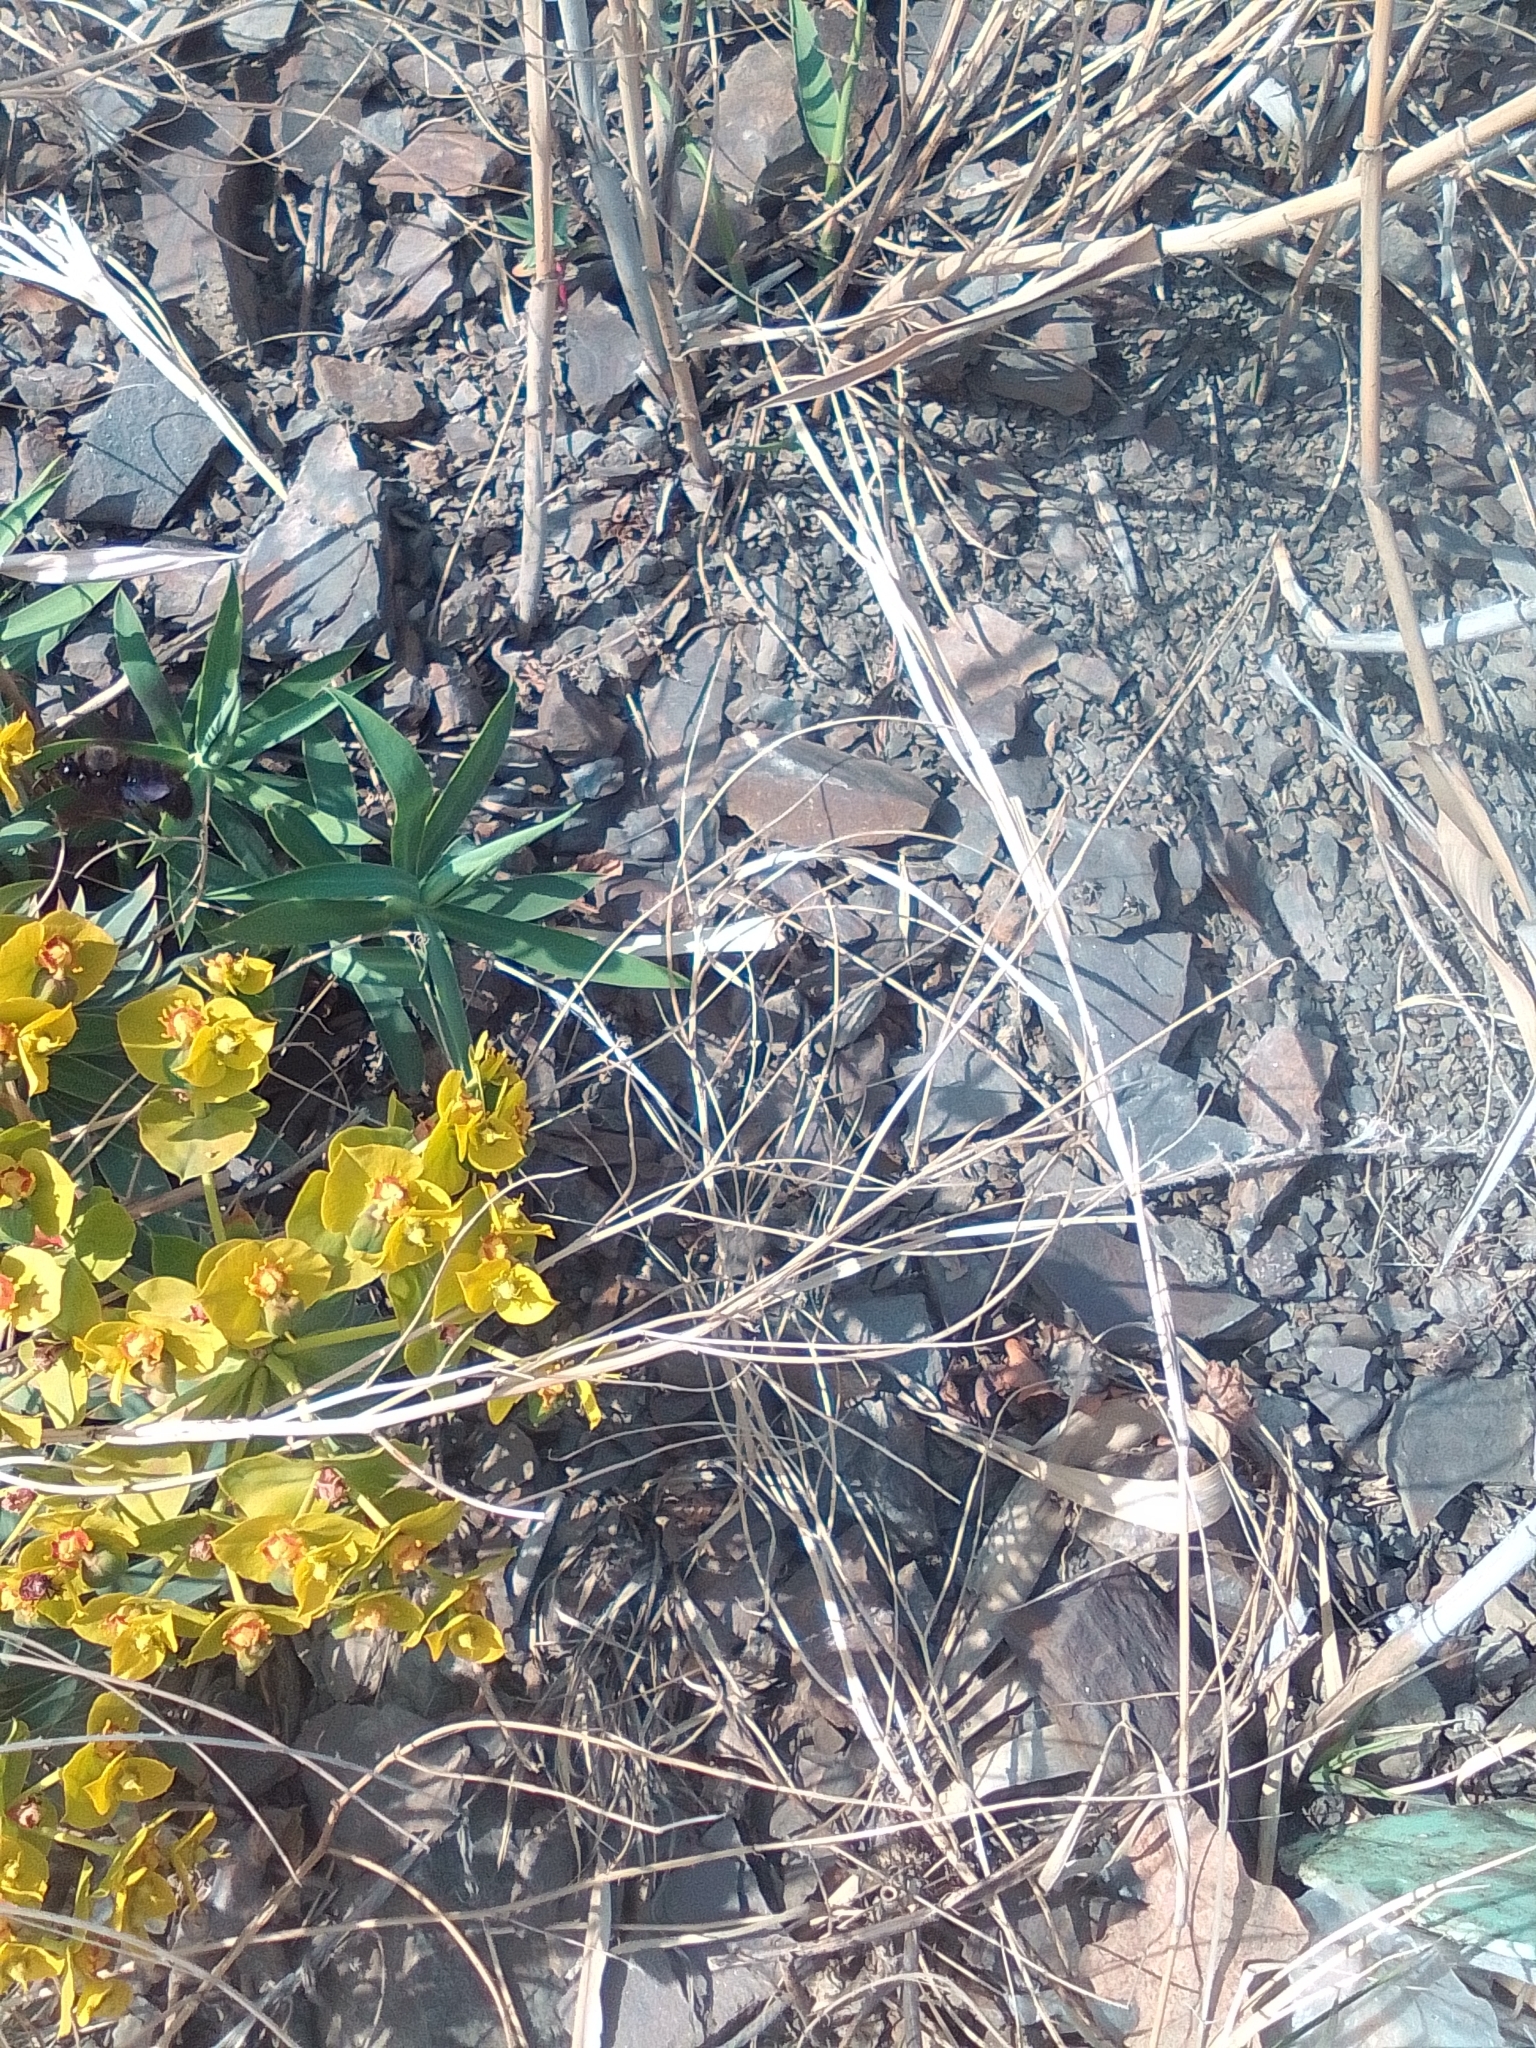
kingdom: Plantae
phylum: Tracheophyta
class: Magnoliopsida
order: Malpighiales
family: Euphorbiaceae
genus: Euphorbia
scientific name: Euphorbia rigida
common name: Upright myrtle spurge
